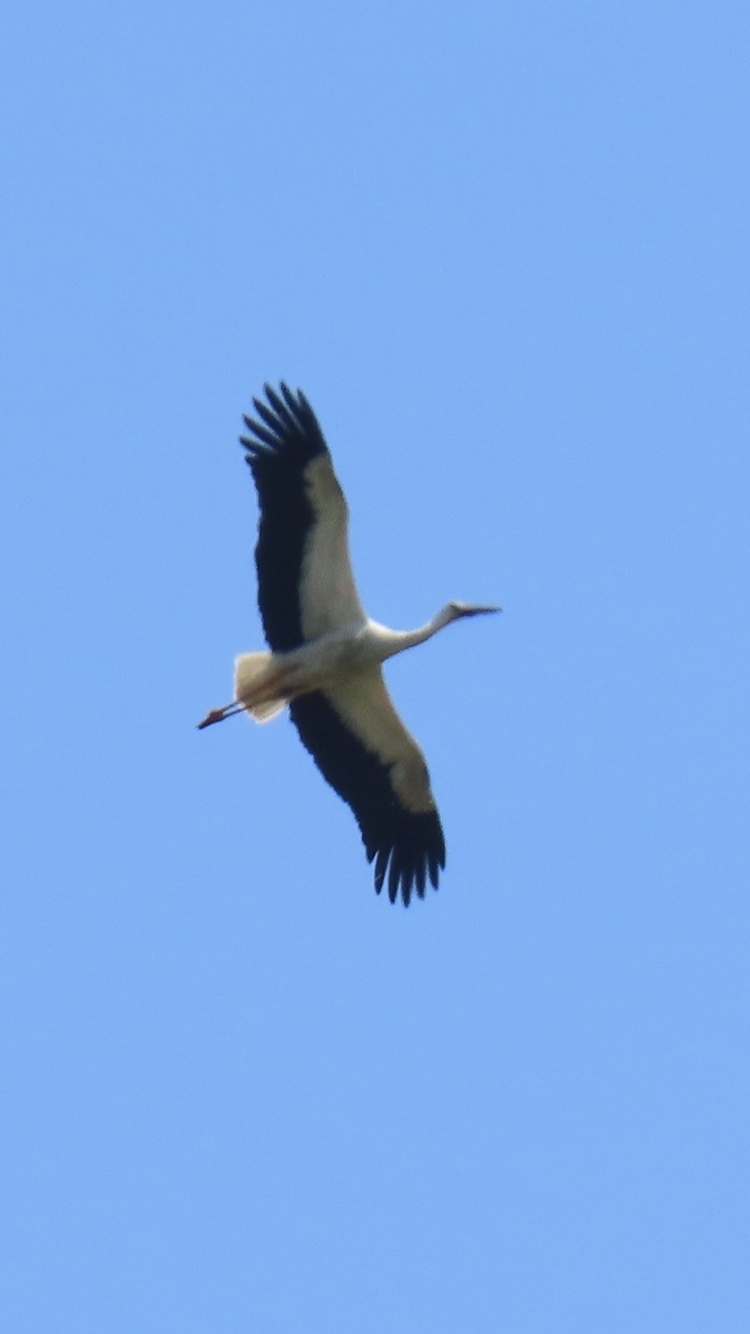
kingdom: Animalia
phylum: Chordata
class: Aves
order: Ciconiiformes
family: Ciconiidae
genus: Ciconia
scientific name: Ciconia ciconia
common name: White stork
